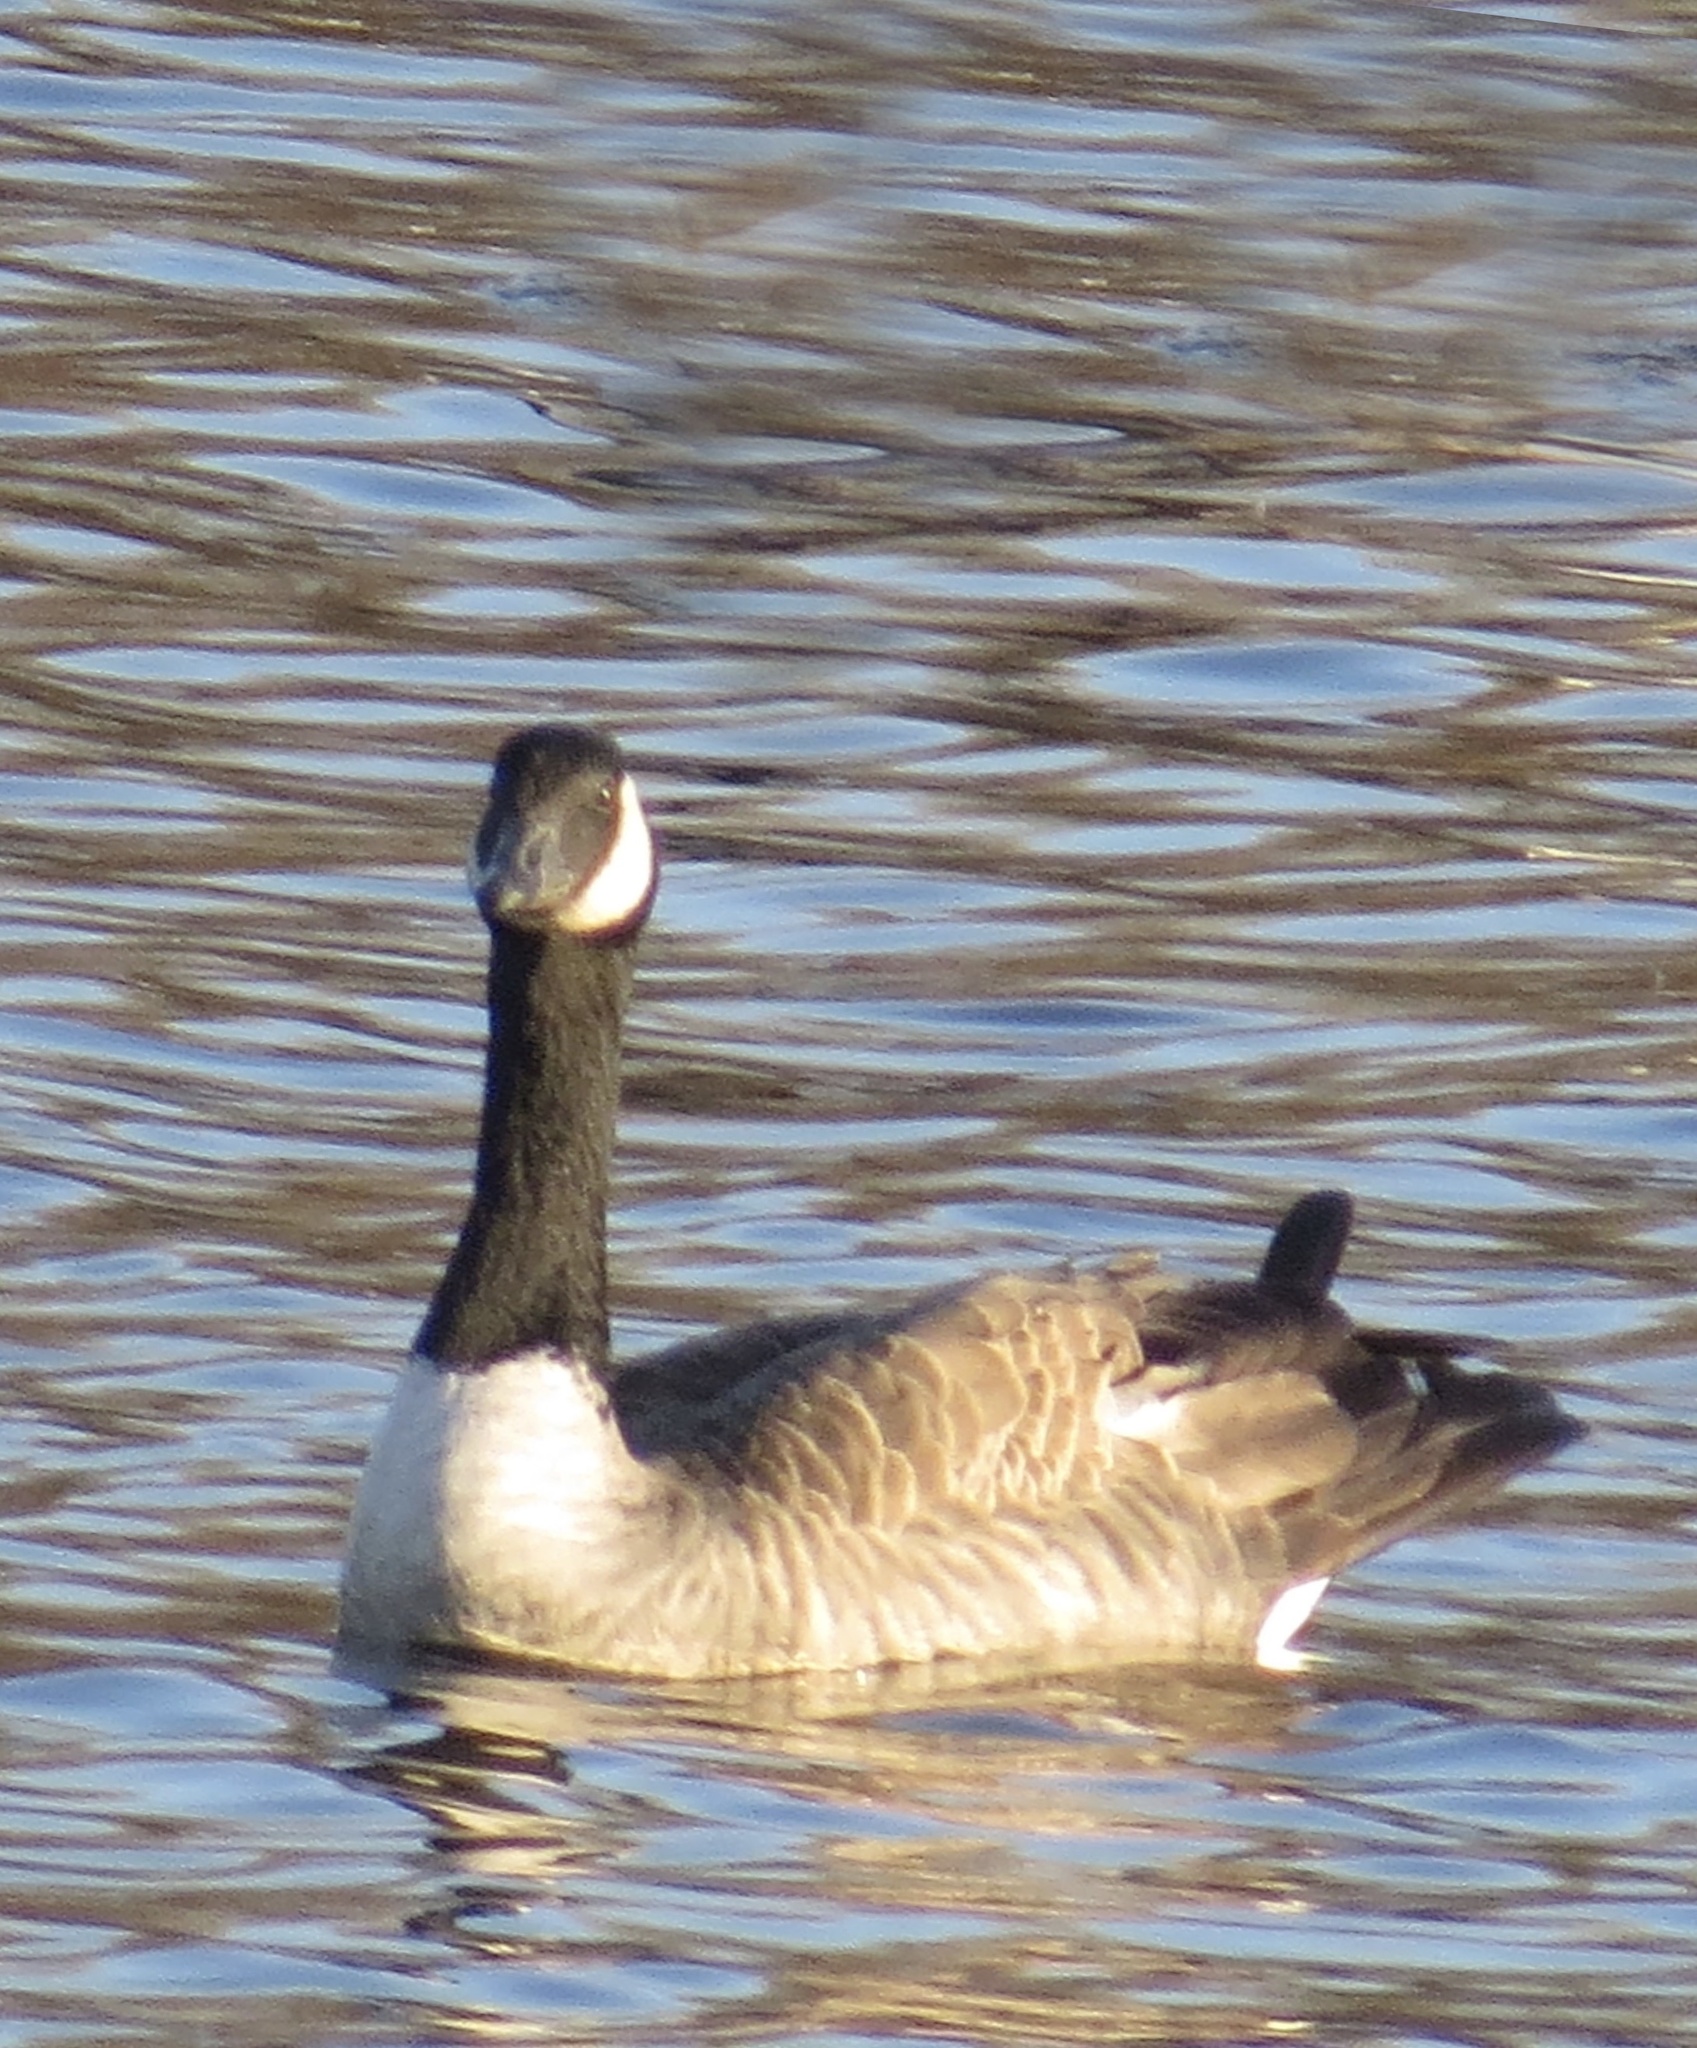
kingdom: Animalia
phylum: Chordata
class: Aves
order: Anseriformes
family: Anatidae
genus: Branta
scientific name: Branta canadensis
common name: Canada goose
